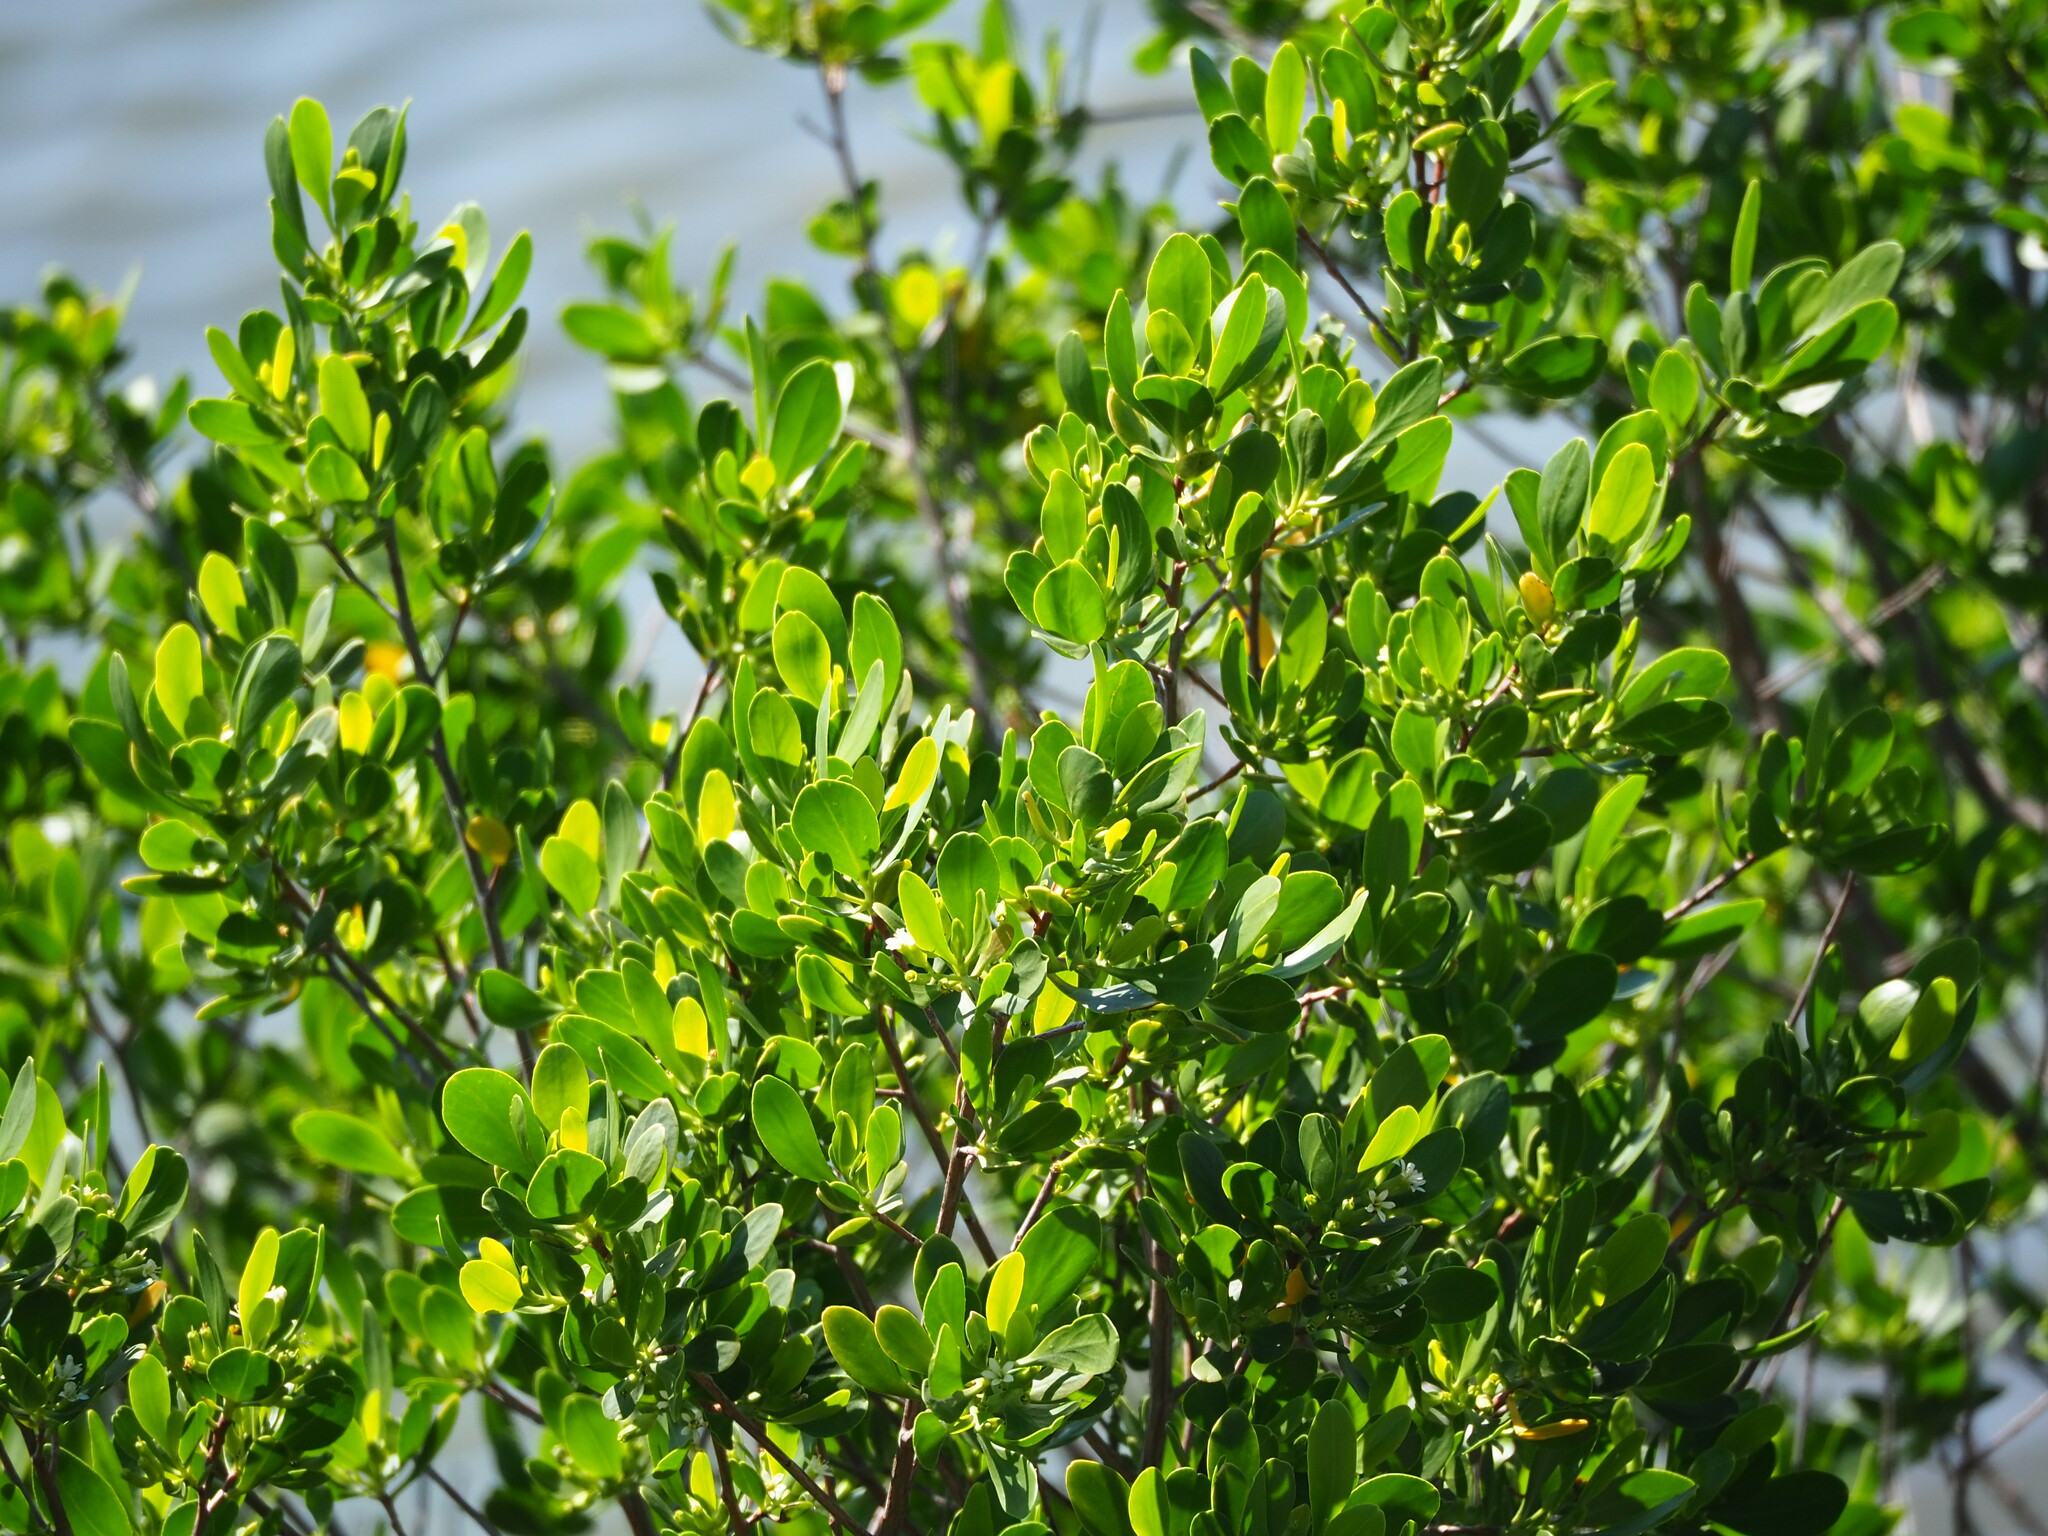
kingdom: Plantae
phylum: Tracheophyta
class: Magnoliopsida
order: Myrtales
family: Combretaceae
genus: Lumnitzera
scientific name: Lumnitzera racemosa
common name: White-flowered black mangrove
